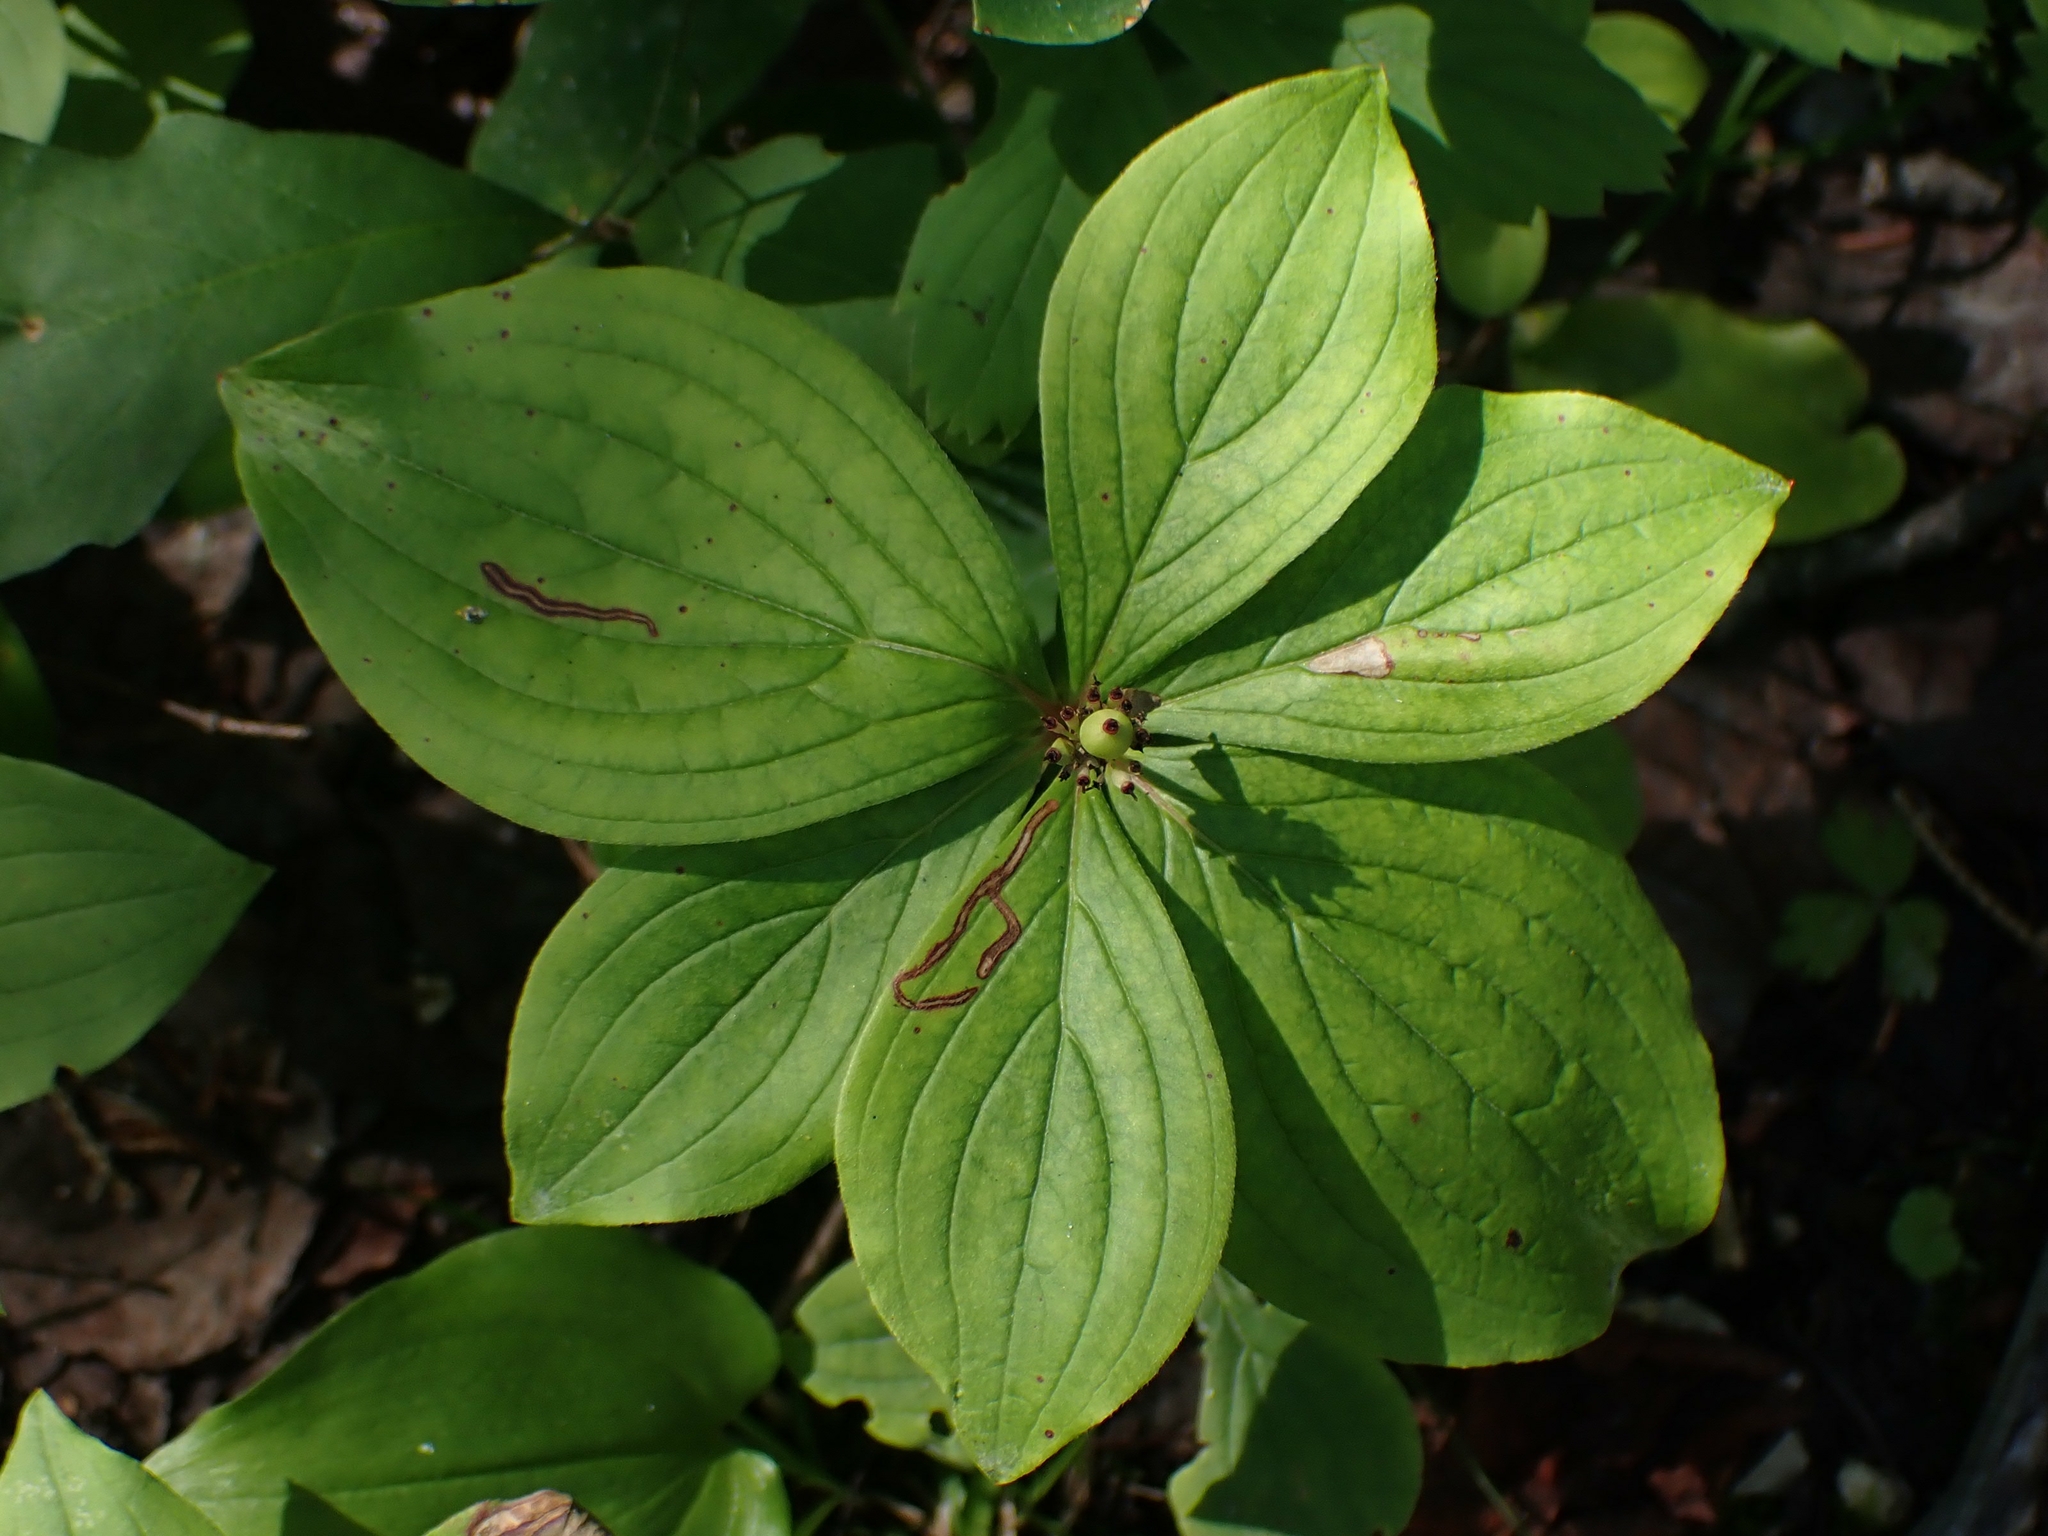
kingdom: Plantae
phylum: Tracheophyta
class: Magnoliopsida
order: Cornales
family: Cornaceae
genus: Cornus
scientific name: Cornus canadensis
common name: Creeping dogwood
